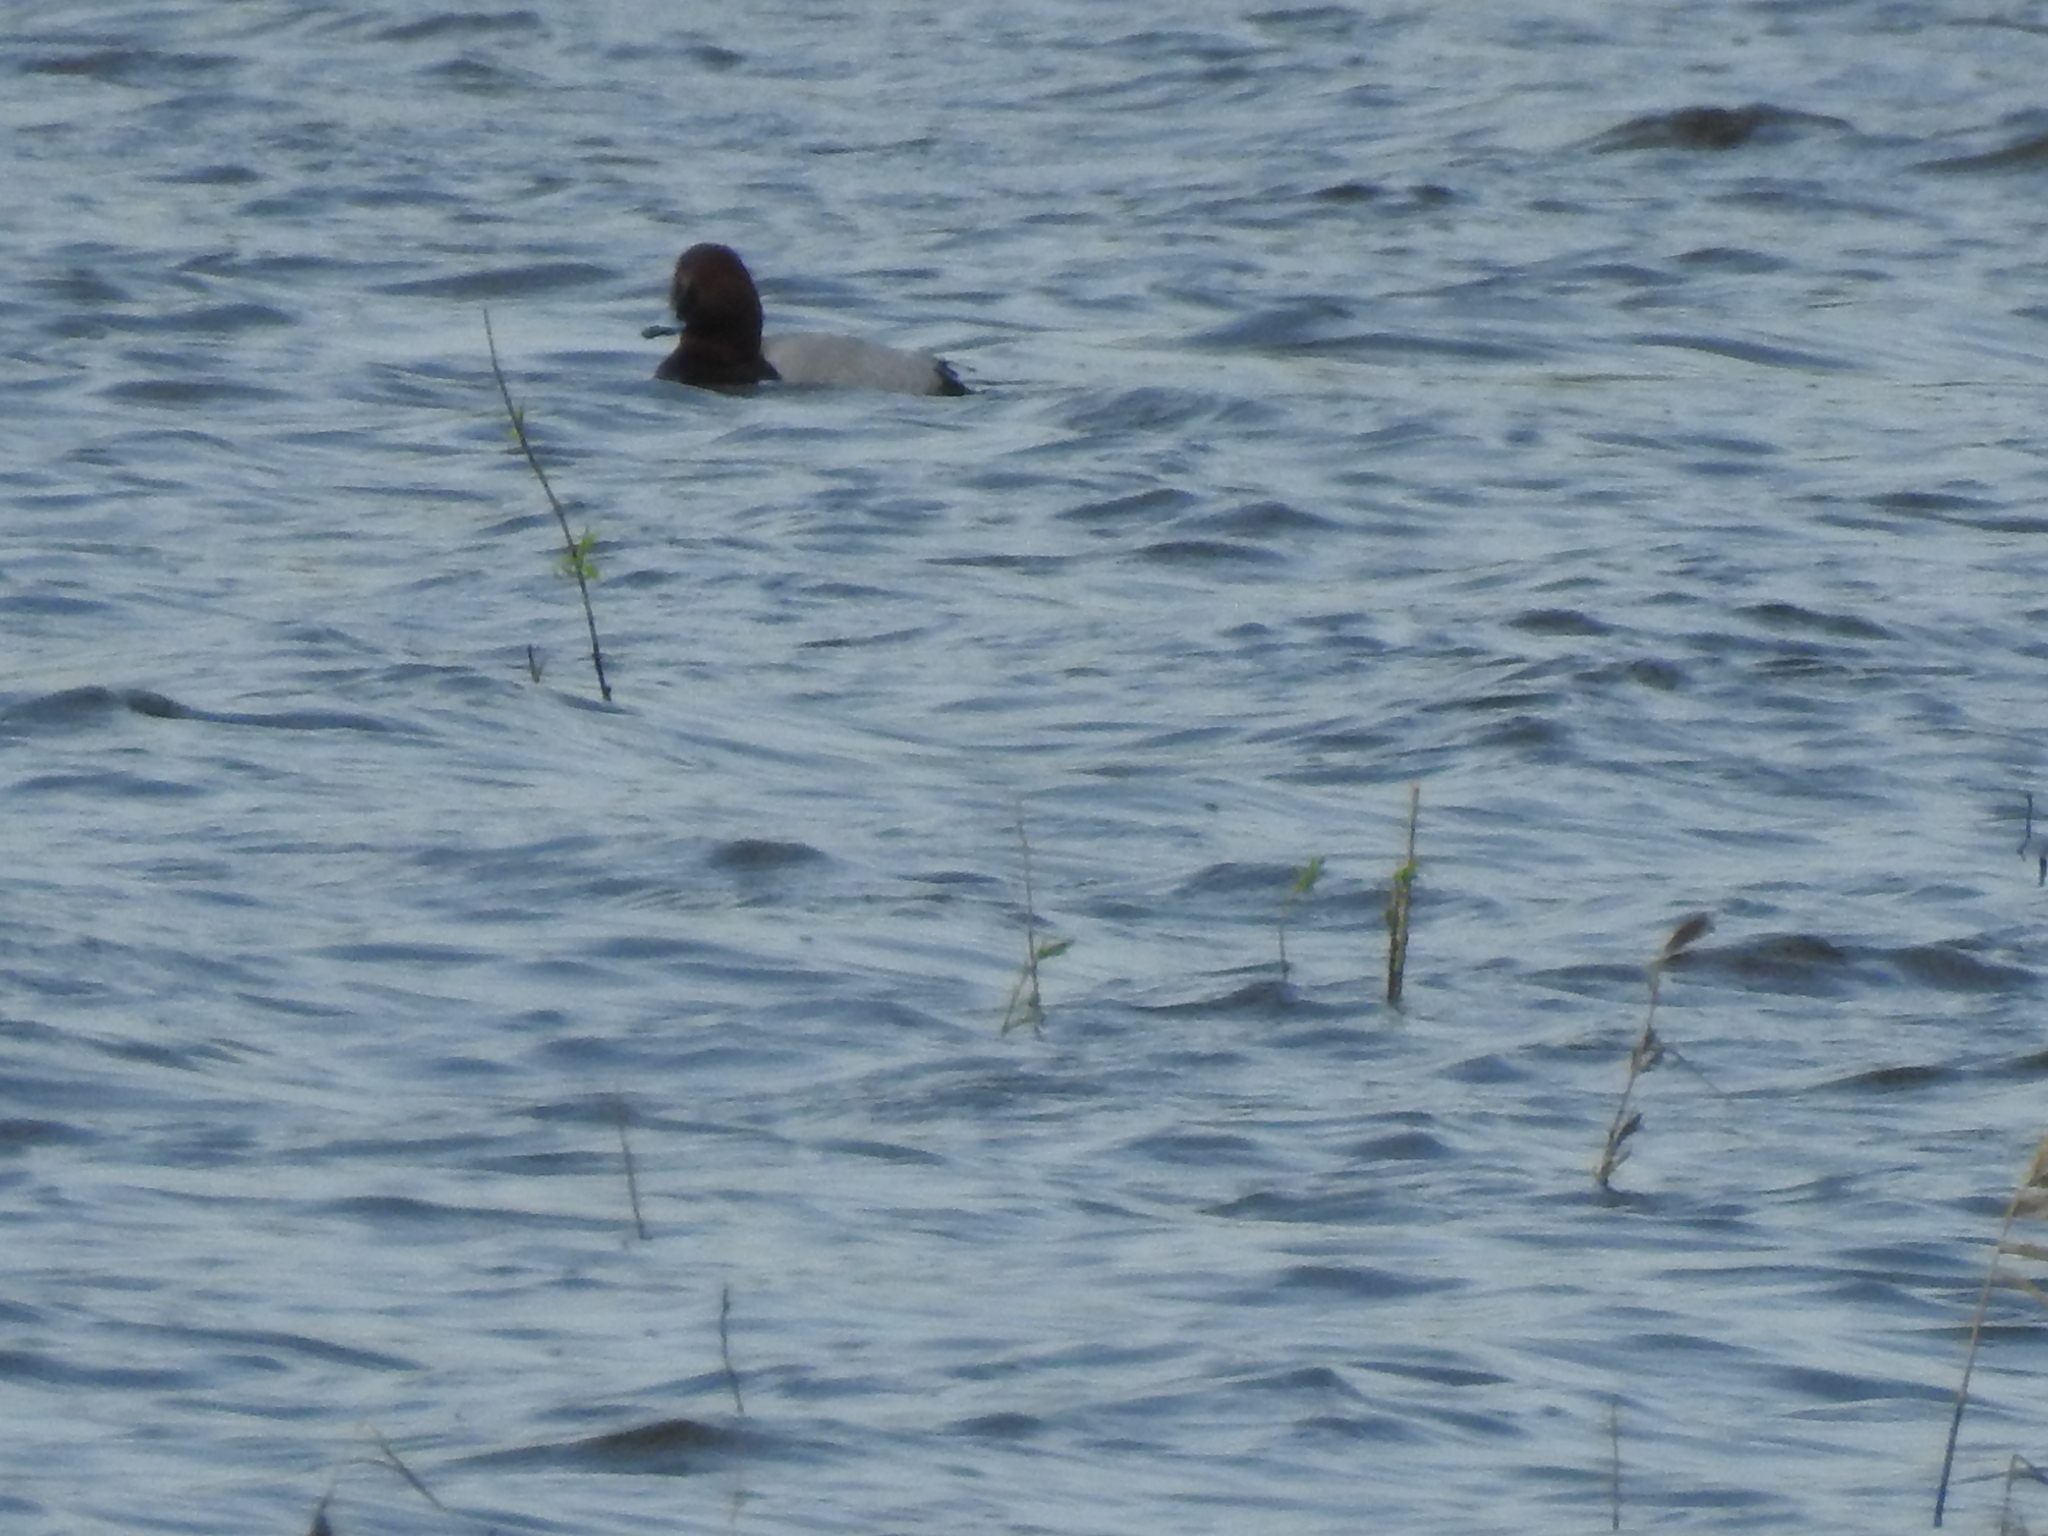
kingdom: Animalia
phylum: Chordata
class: Aves
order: Anseriformes
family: Anatidae
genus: Aythya
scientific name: Aythya ferina
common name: Common pochard
